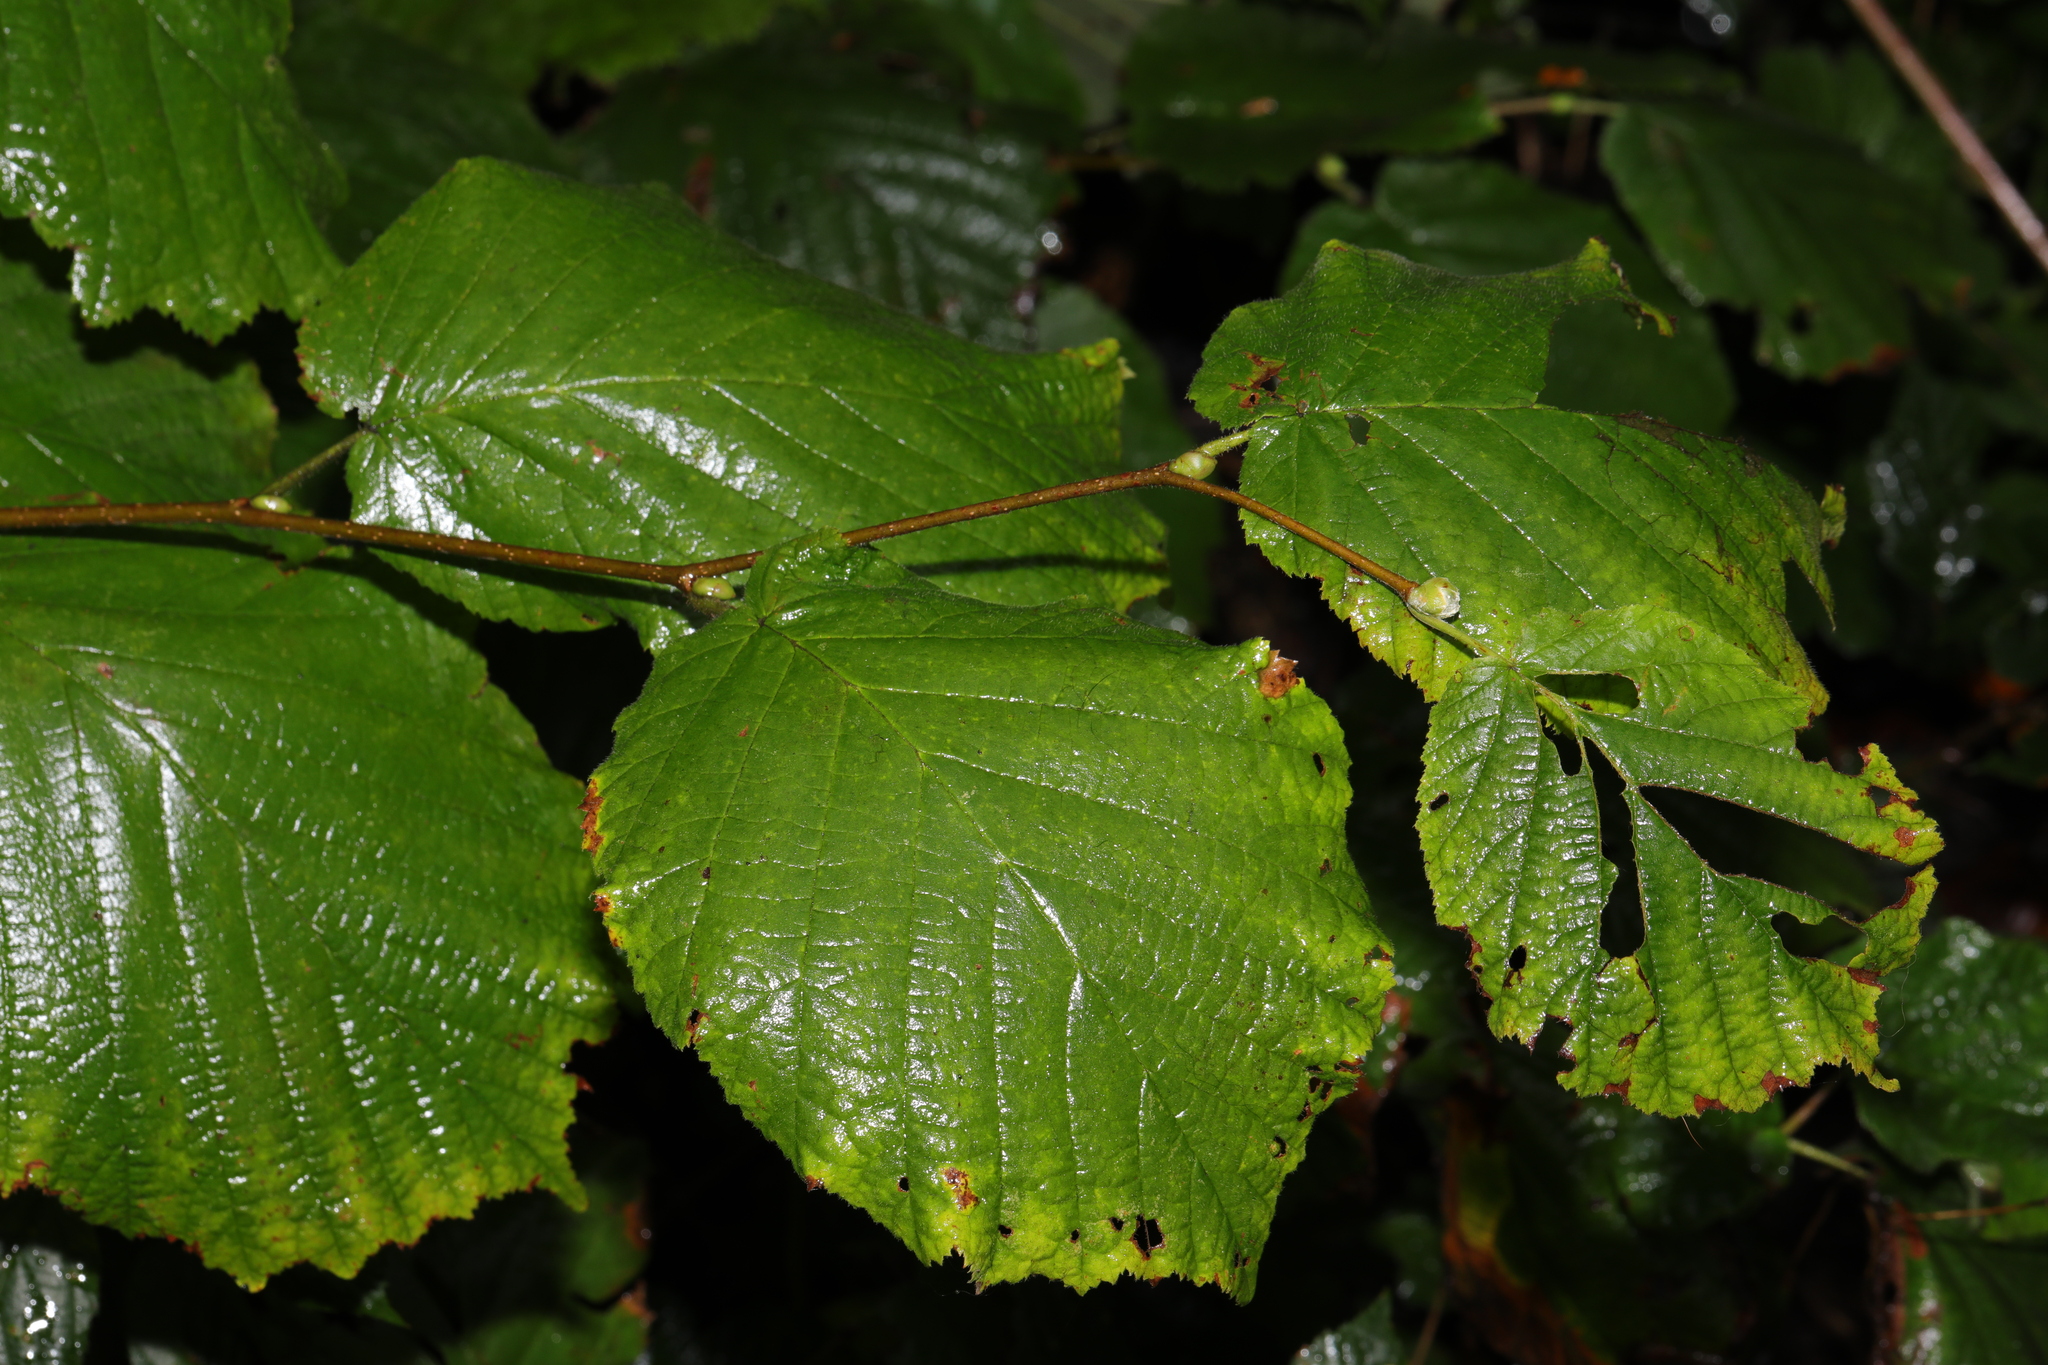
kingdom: Plantae
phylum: Tracheophyta
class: Magnoliopsida
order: Fagales
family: Betulaceae
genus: Corylus
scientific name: Corylus avellana
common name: European hazel
